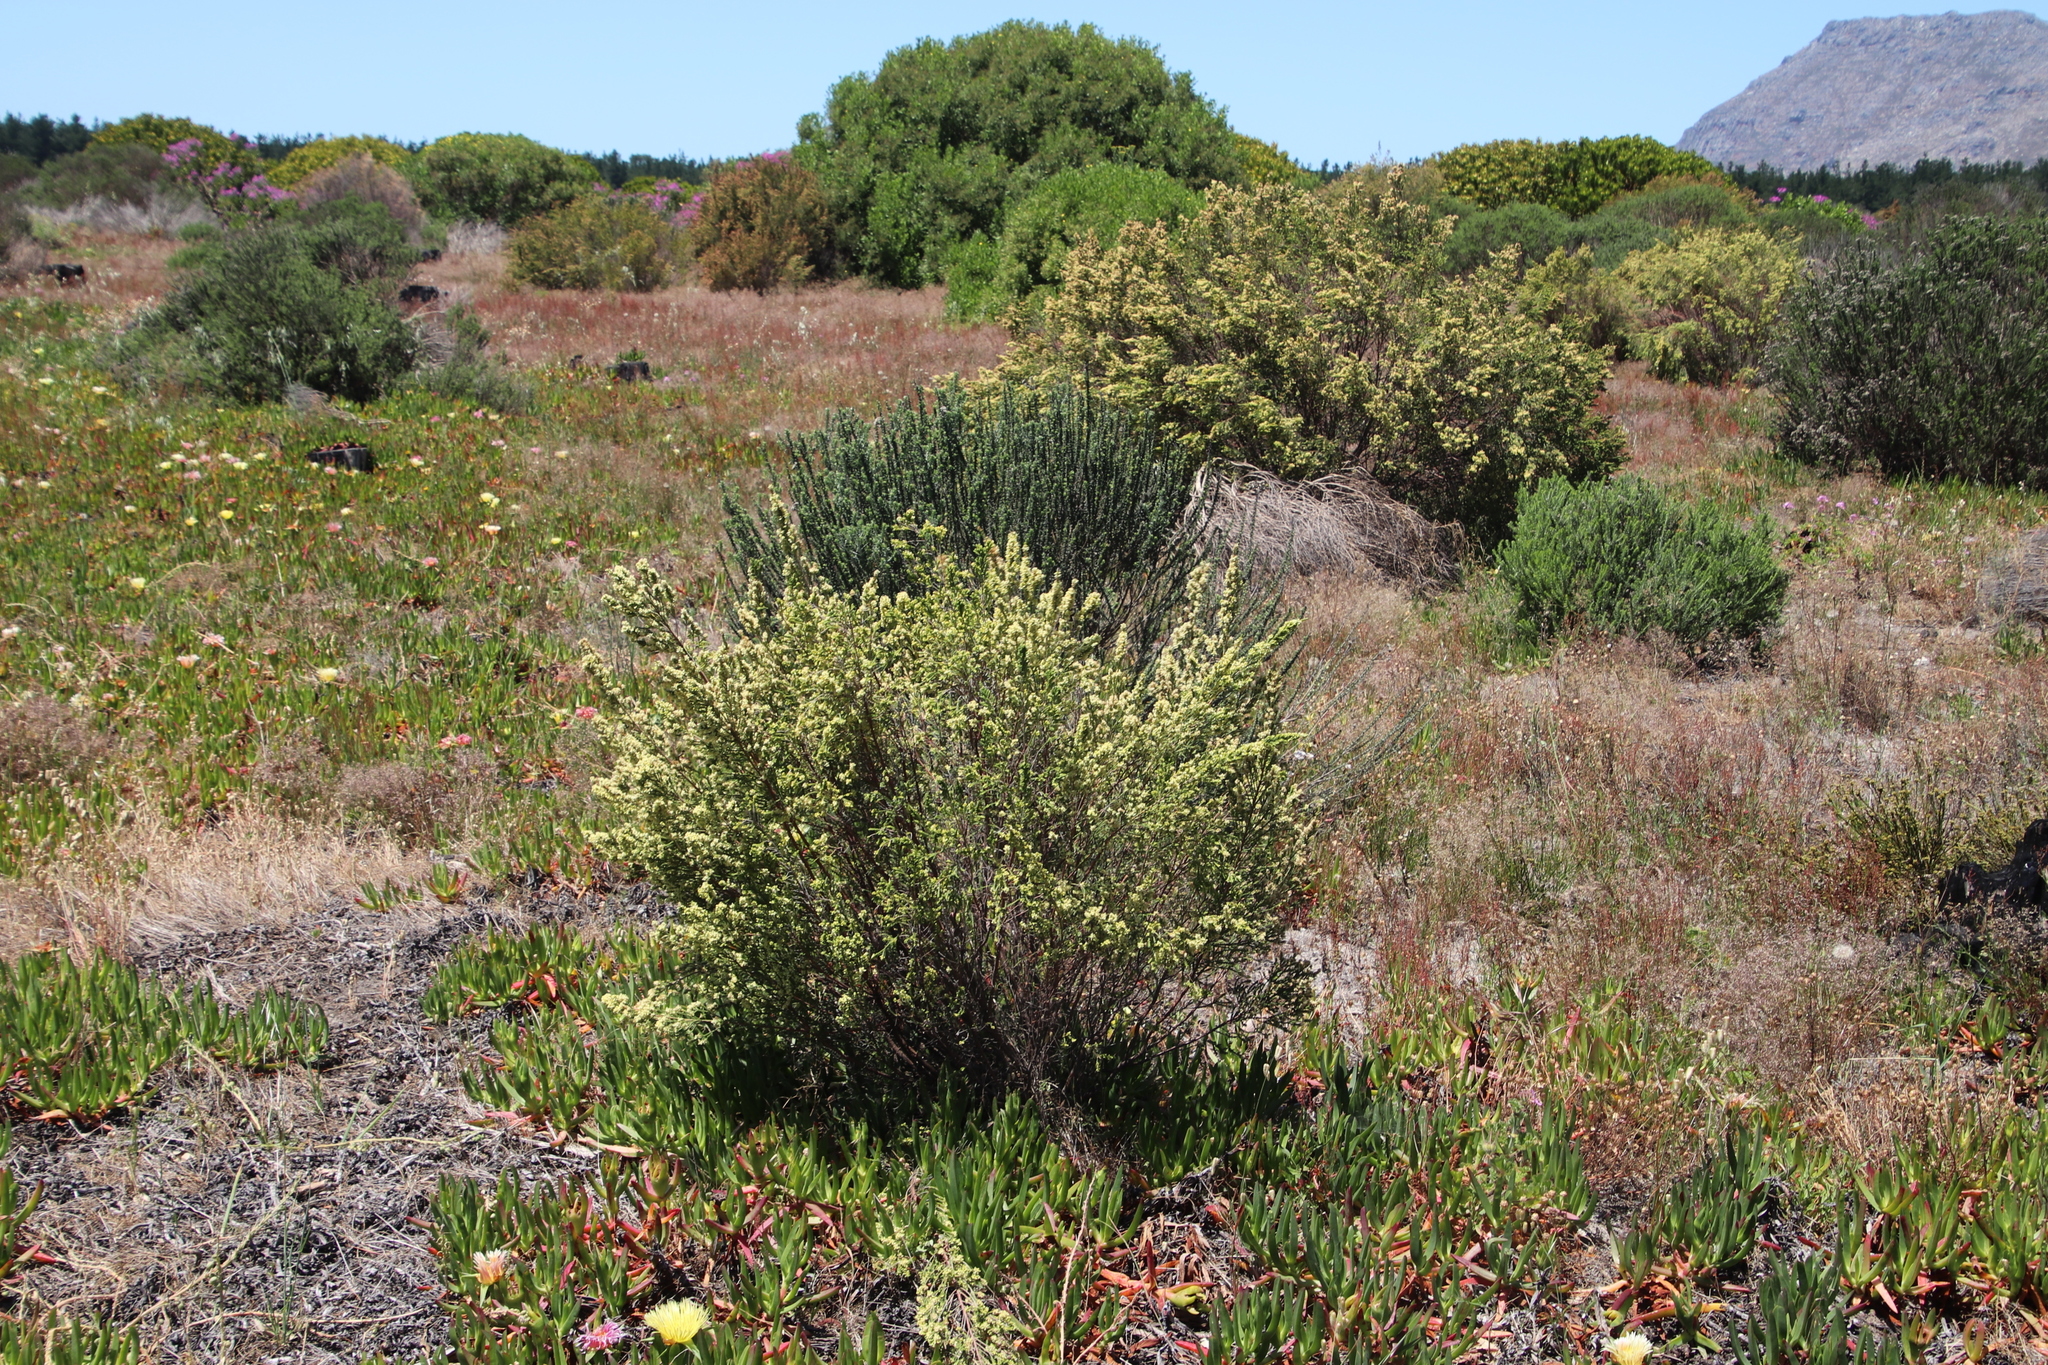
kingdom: Plantae
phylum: Tracheophyta
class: Magnoliopsida
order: Malvales
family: Thymelaeaceae
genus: Passerina
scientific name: Passerina corymbosa
